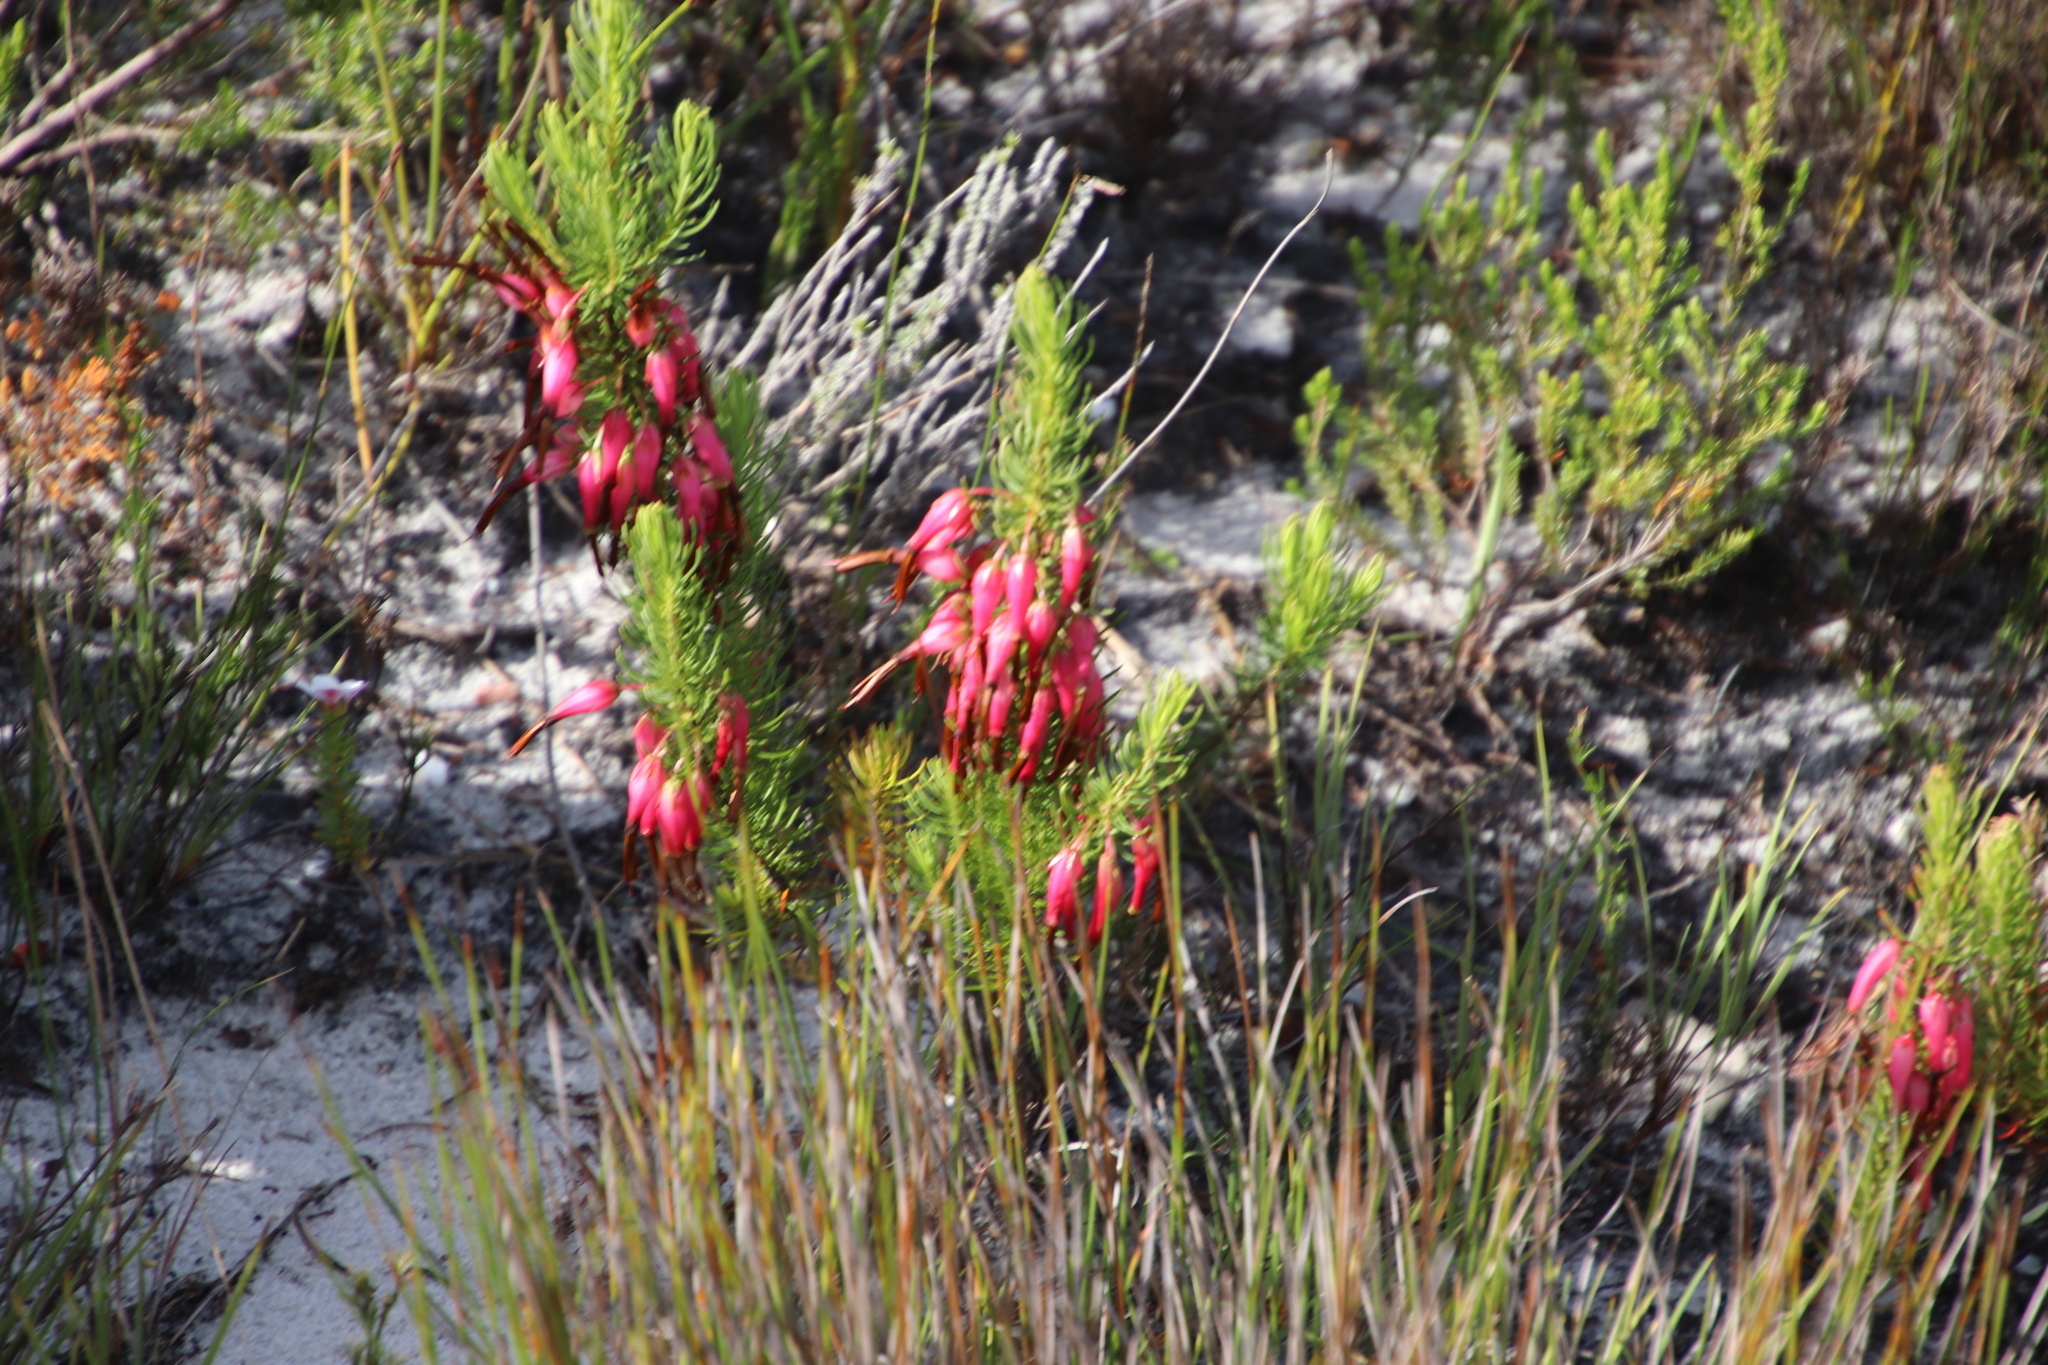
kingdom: Plantae
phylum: Tracheophyta
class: Magnoliopsida
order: Ericales
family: Ericaceae
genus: Erica
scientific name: Erica plukenetii
